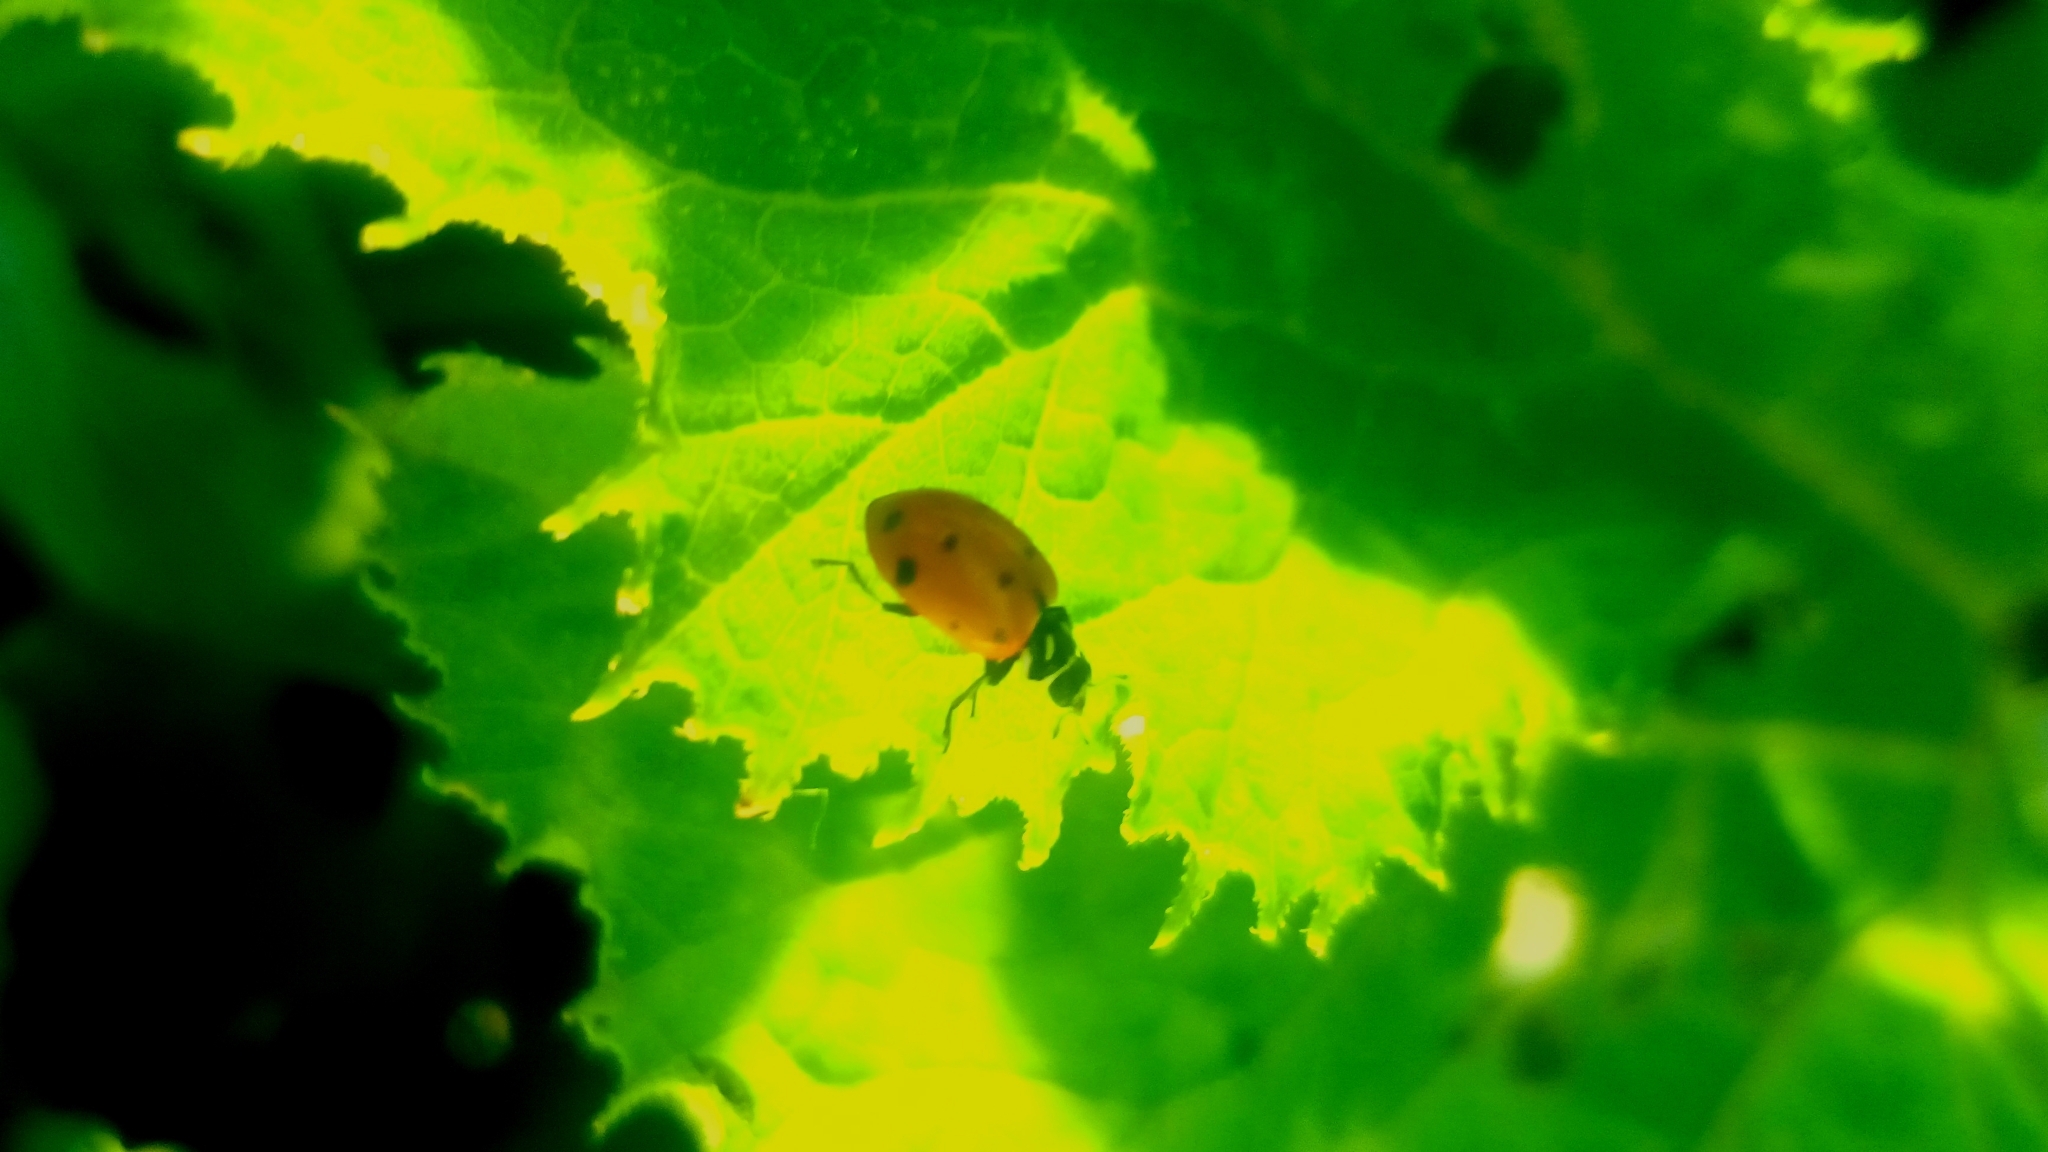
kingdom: Animalia
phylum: Arthropoda
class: Insecta
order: Coleoptera
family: Coccinellidae
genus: Hippodamia
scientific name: Hippodamia convergens
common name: Convergent lady beetle
